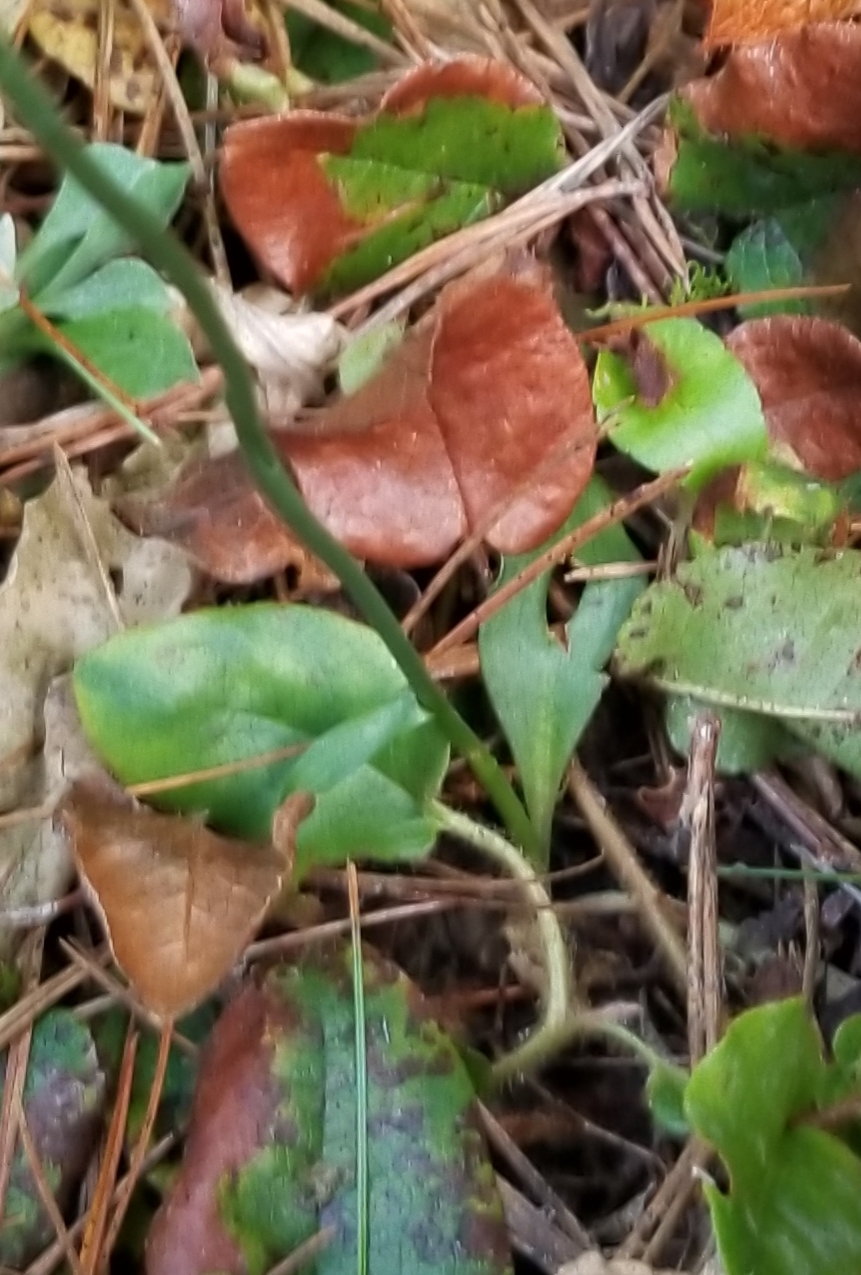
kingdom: Plantae
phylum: Tracheophyta
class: Liliopsida
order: Asparagales
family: Orchidaceae
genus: Spiranthes
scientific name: Spiranthes lacera
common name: Northern slender ladies'-tresses
